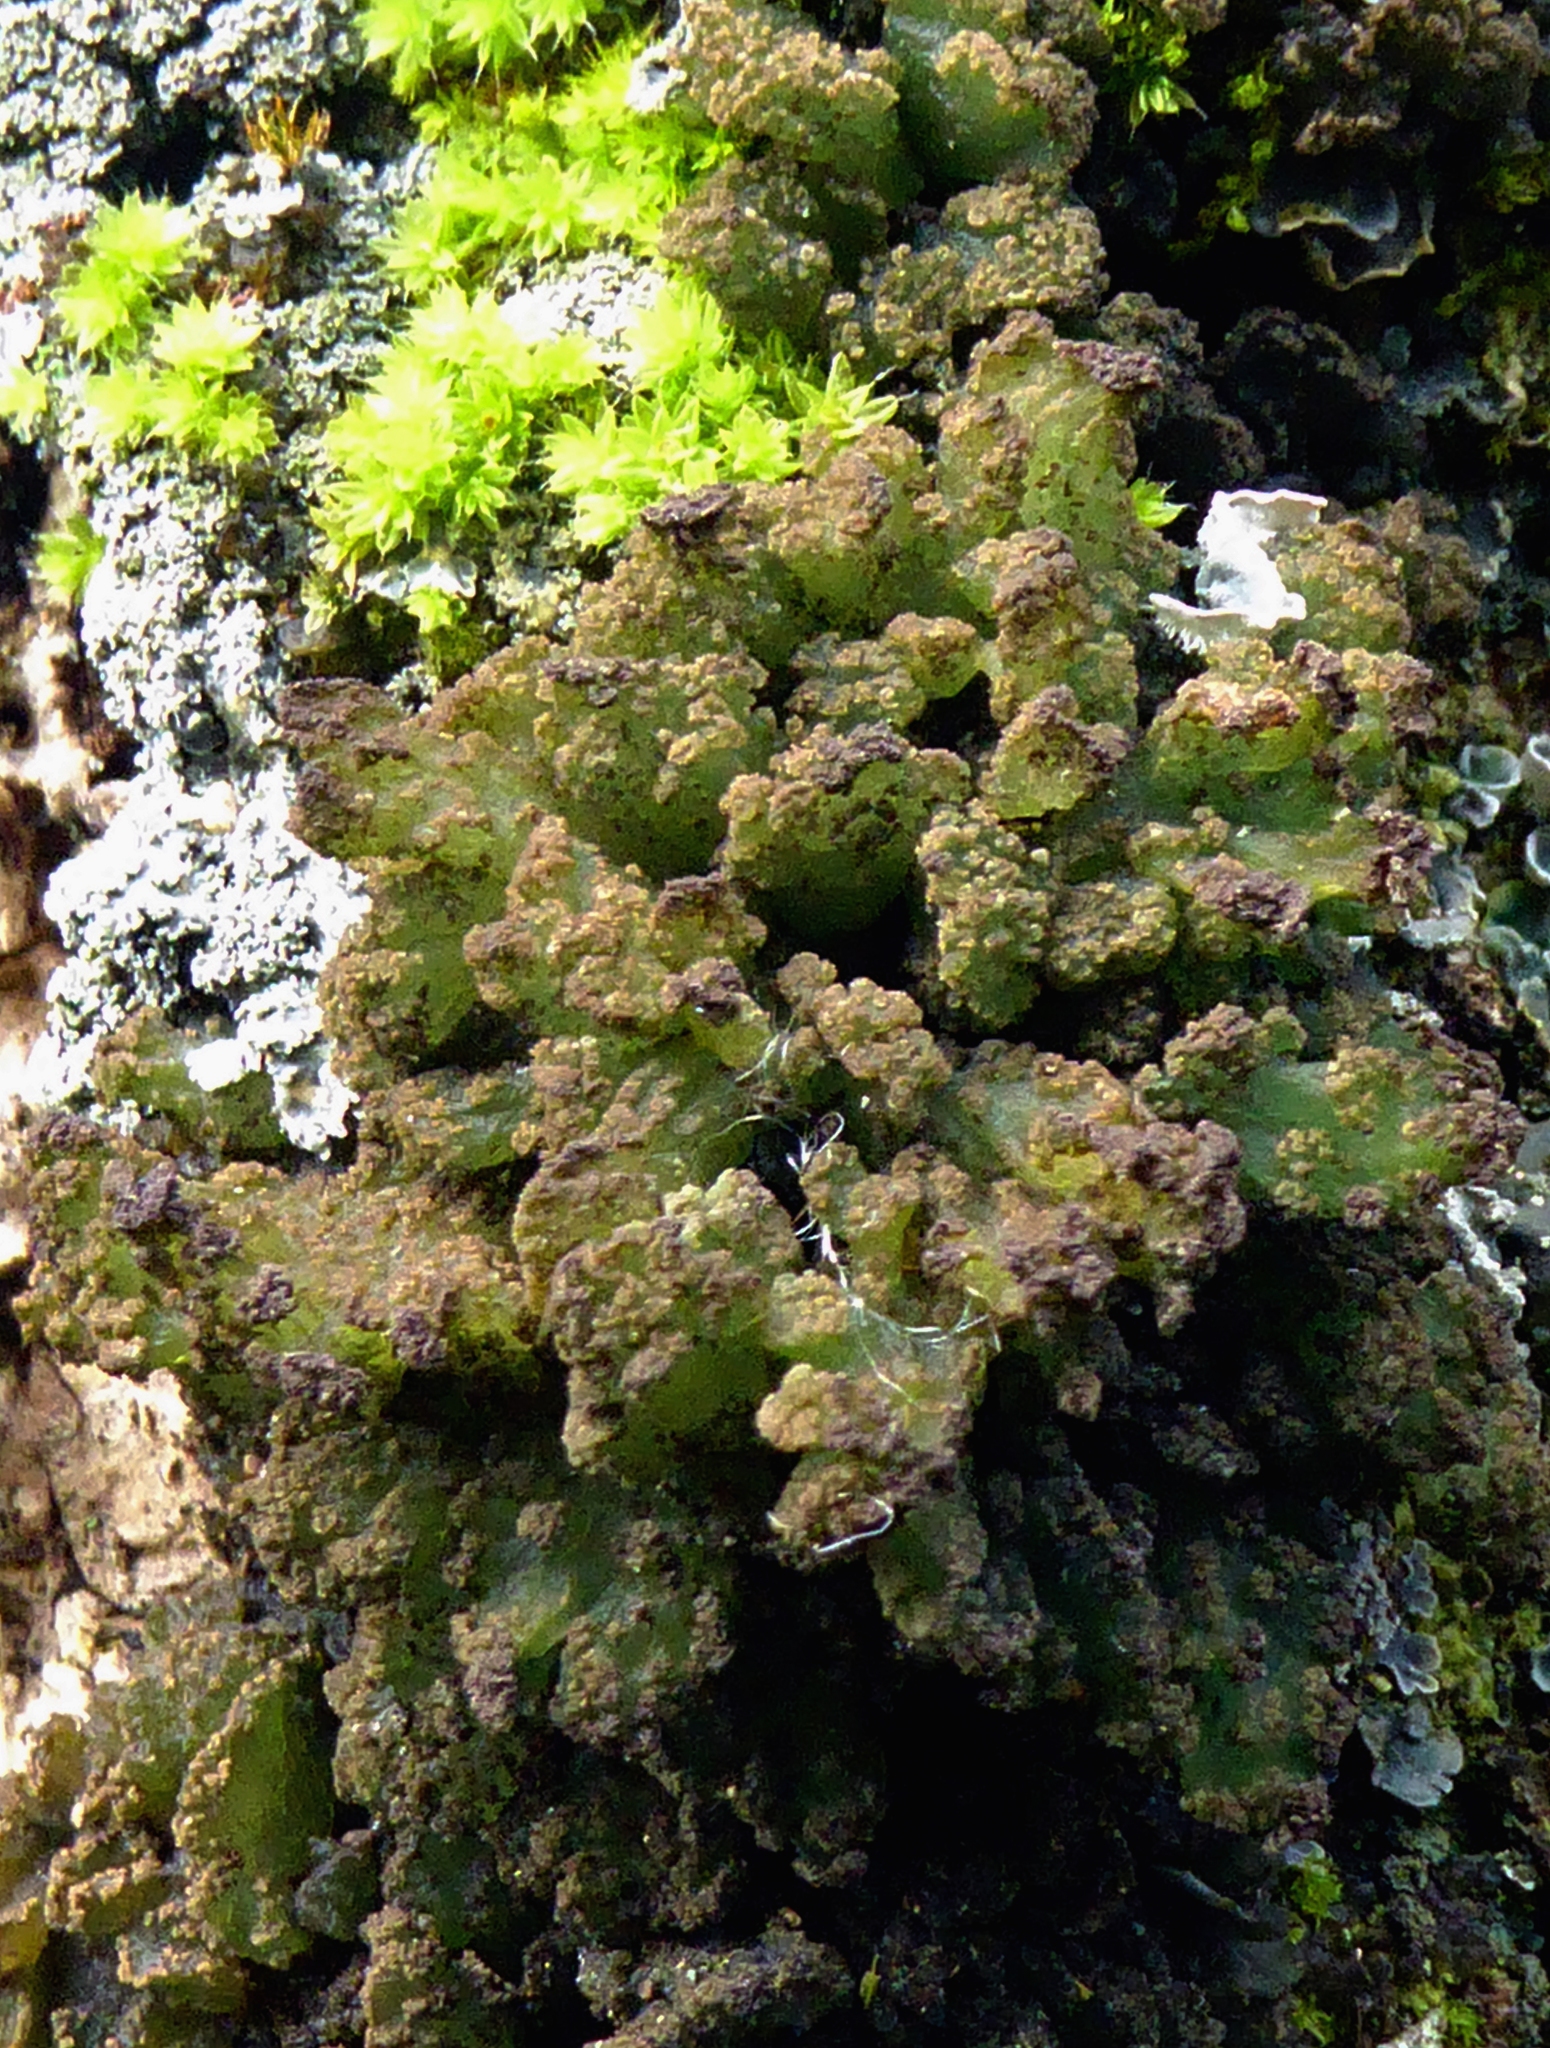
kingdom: Fungi
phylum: Ascomycota
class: Lecanoromycetes
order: Arctomiales
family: Arctomiaceae
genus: Arctomia
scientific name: Arctomia fascicularis
